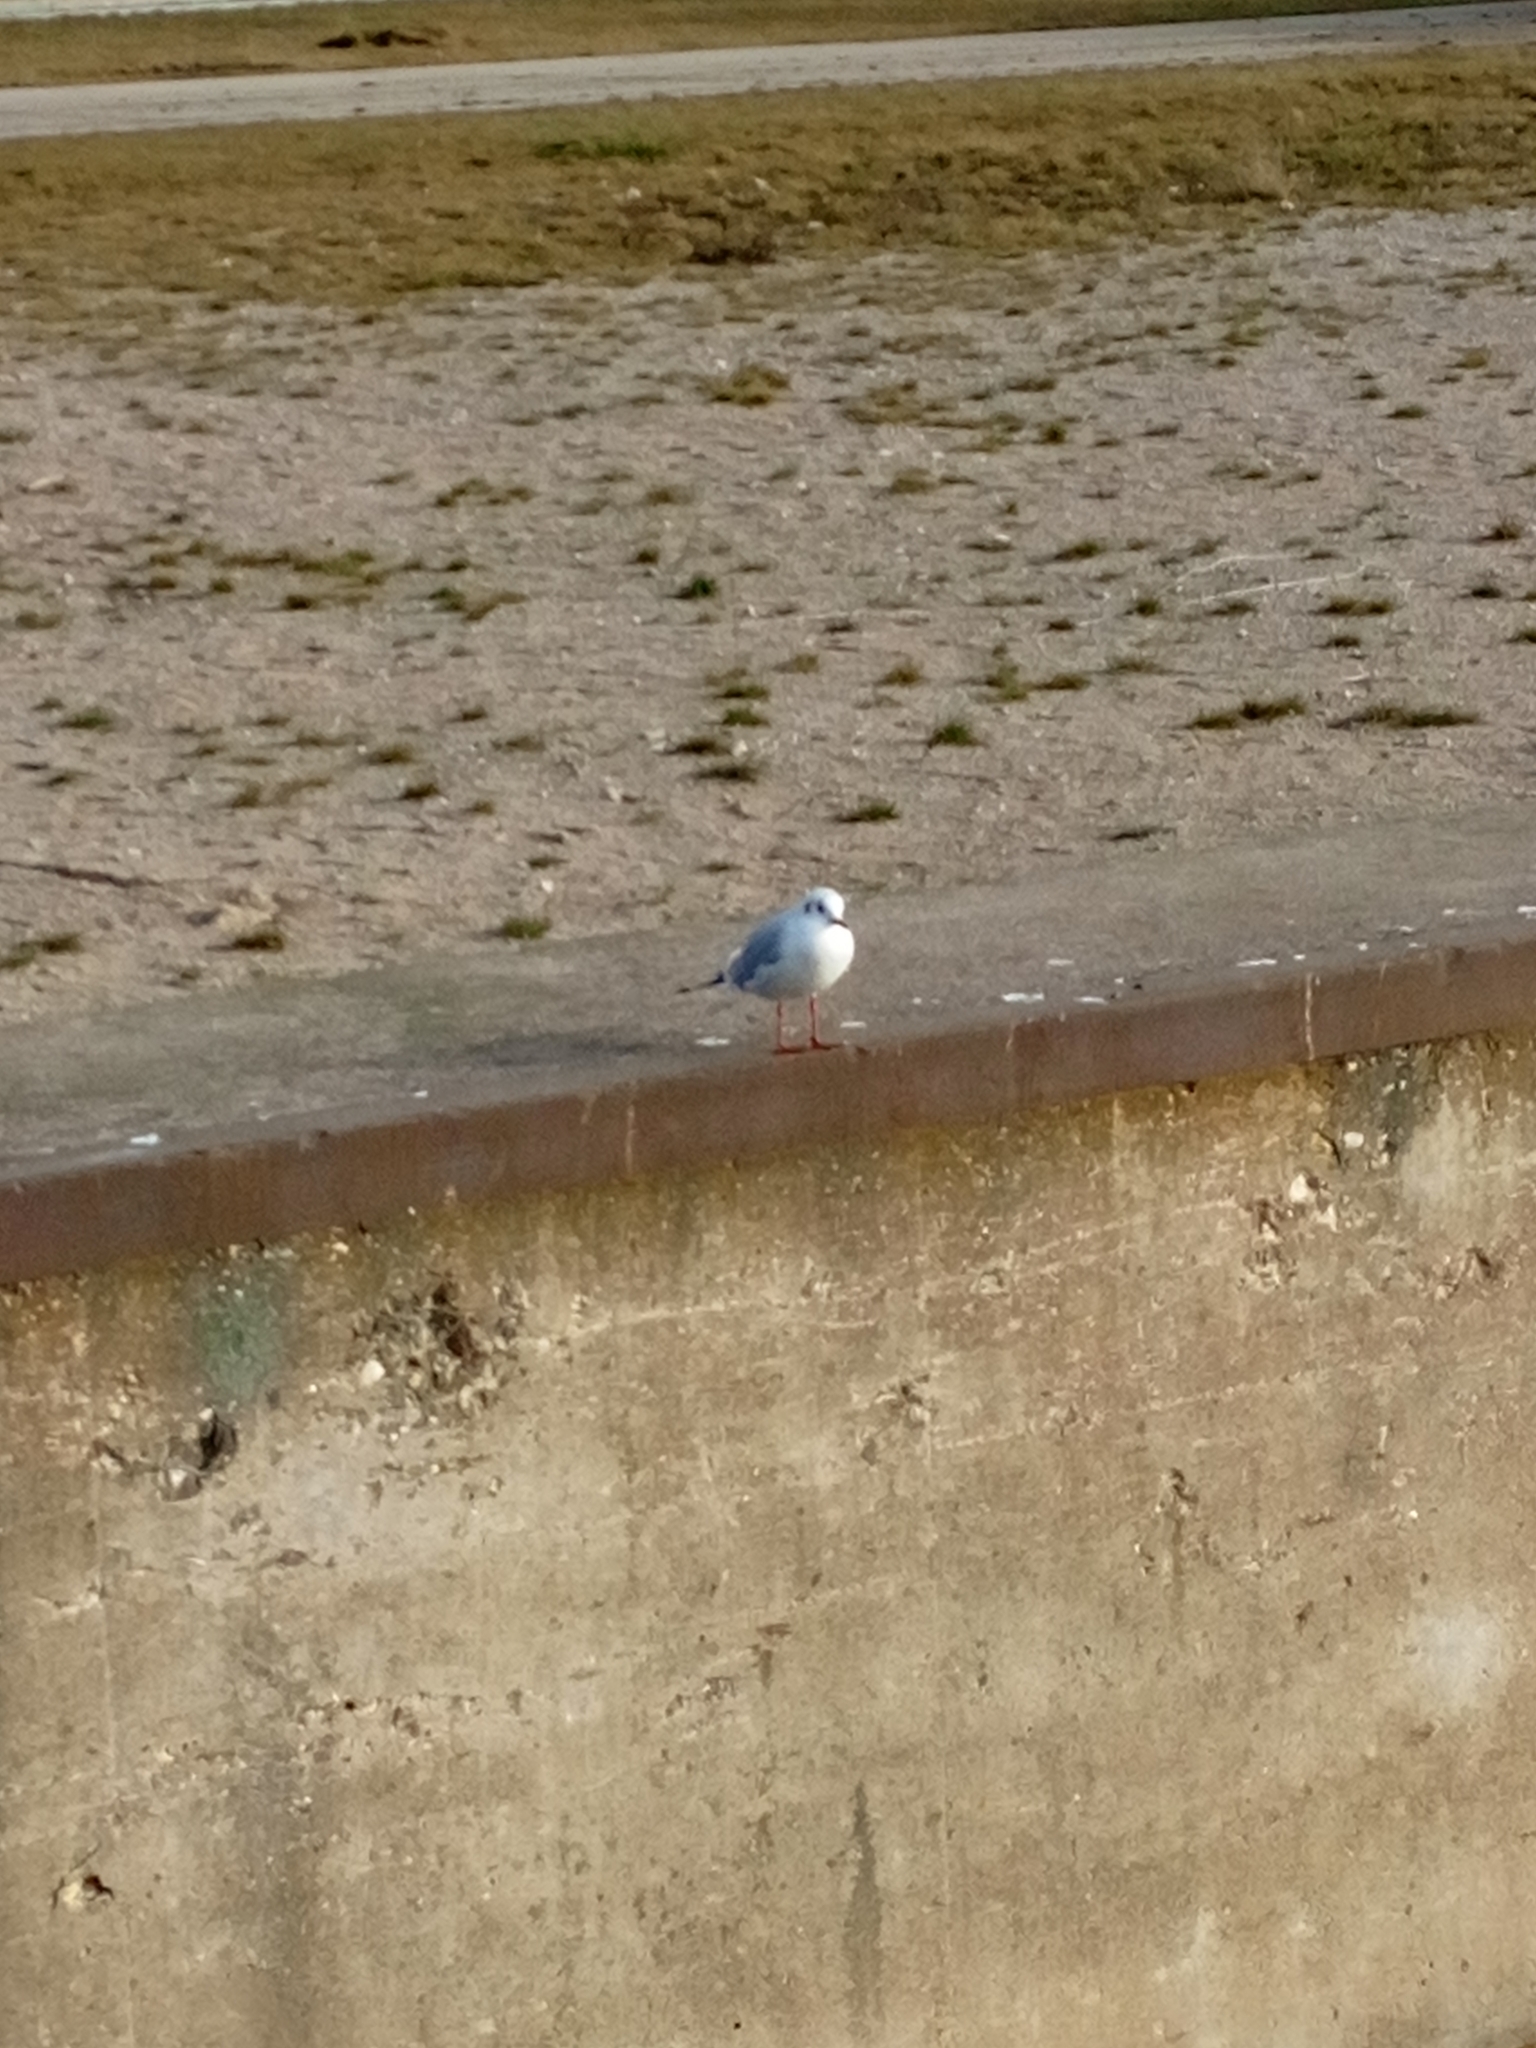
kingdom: Animalia
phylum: Chordata
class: Aves
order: Charadriiformes
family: Laridae
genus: Chroicocephalus
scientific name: Chroicocephalus ridibundus
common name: Black-headed gull
